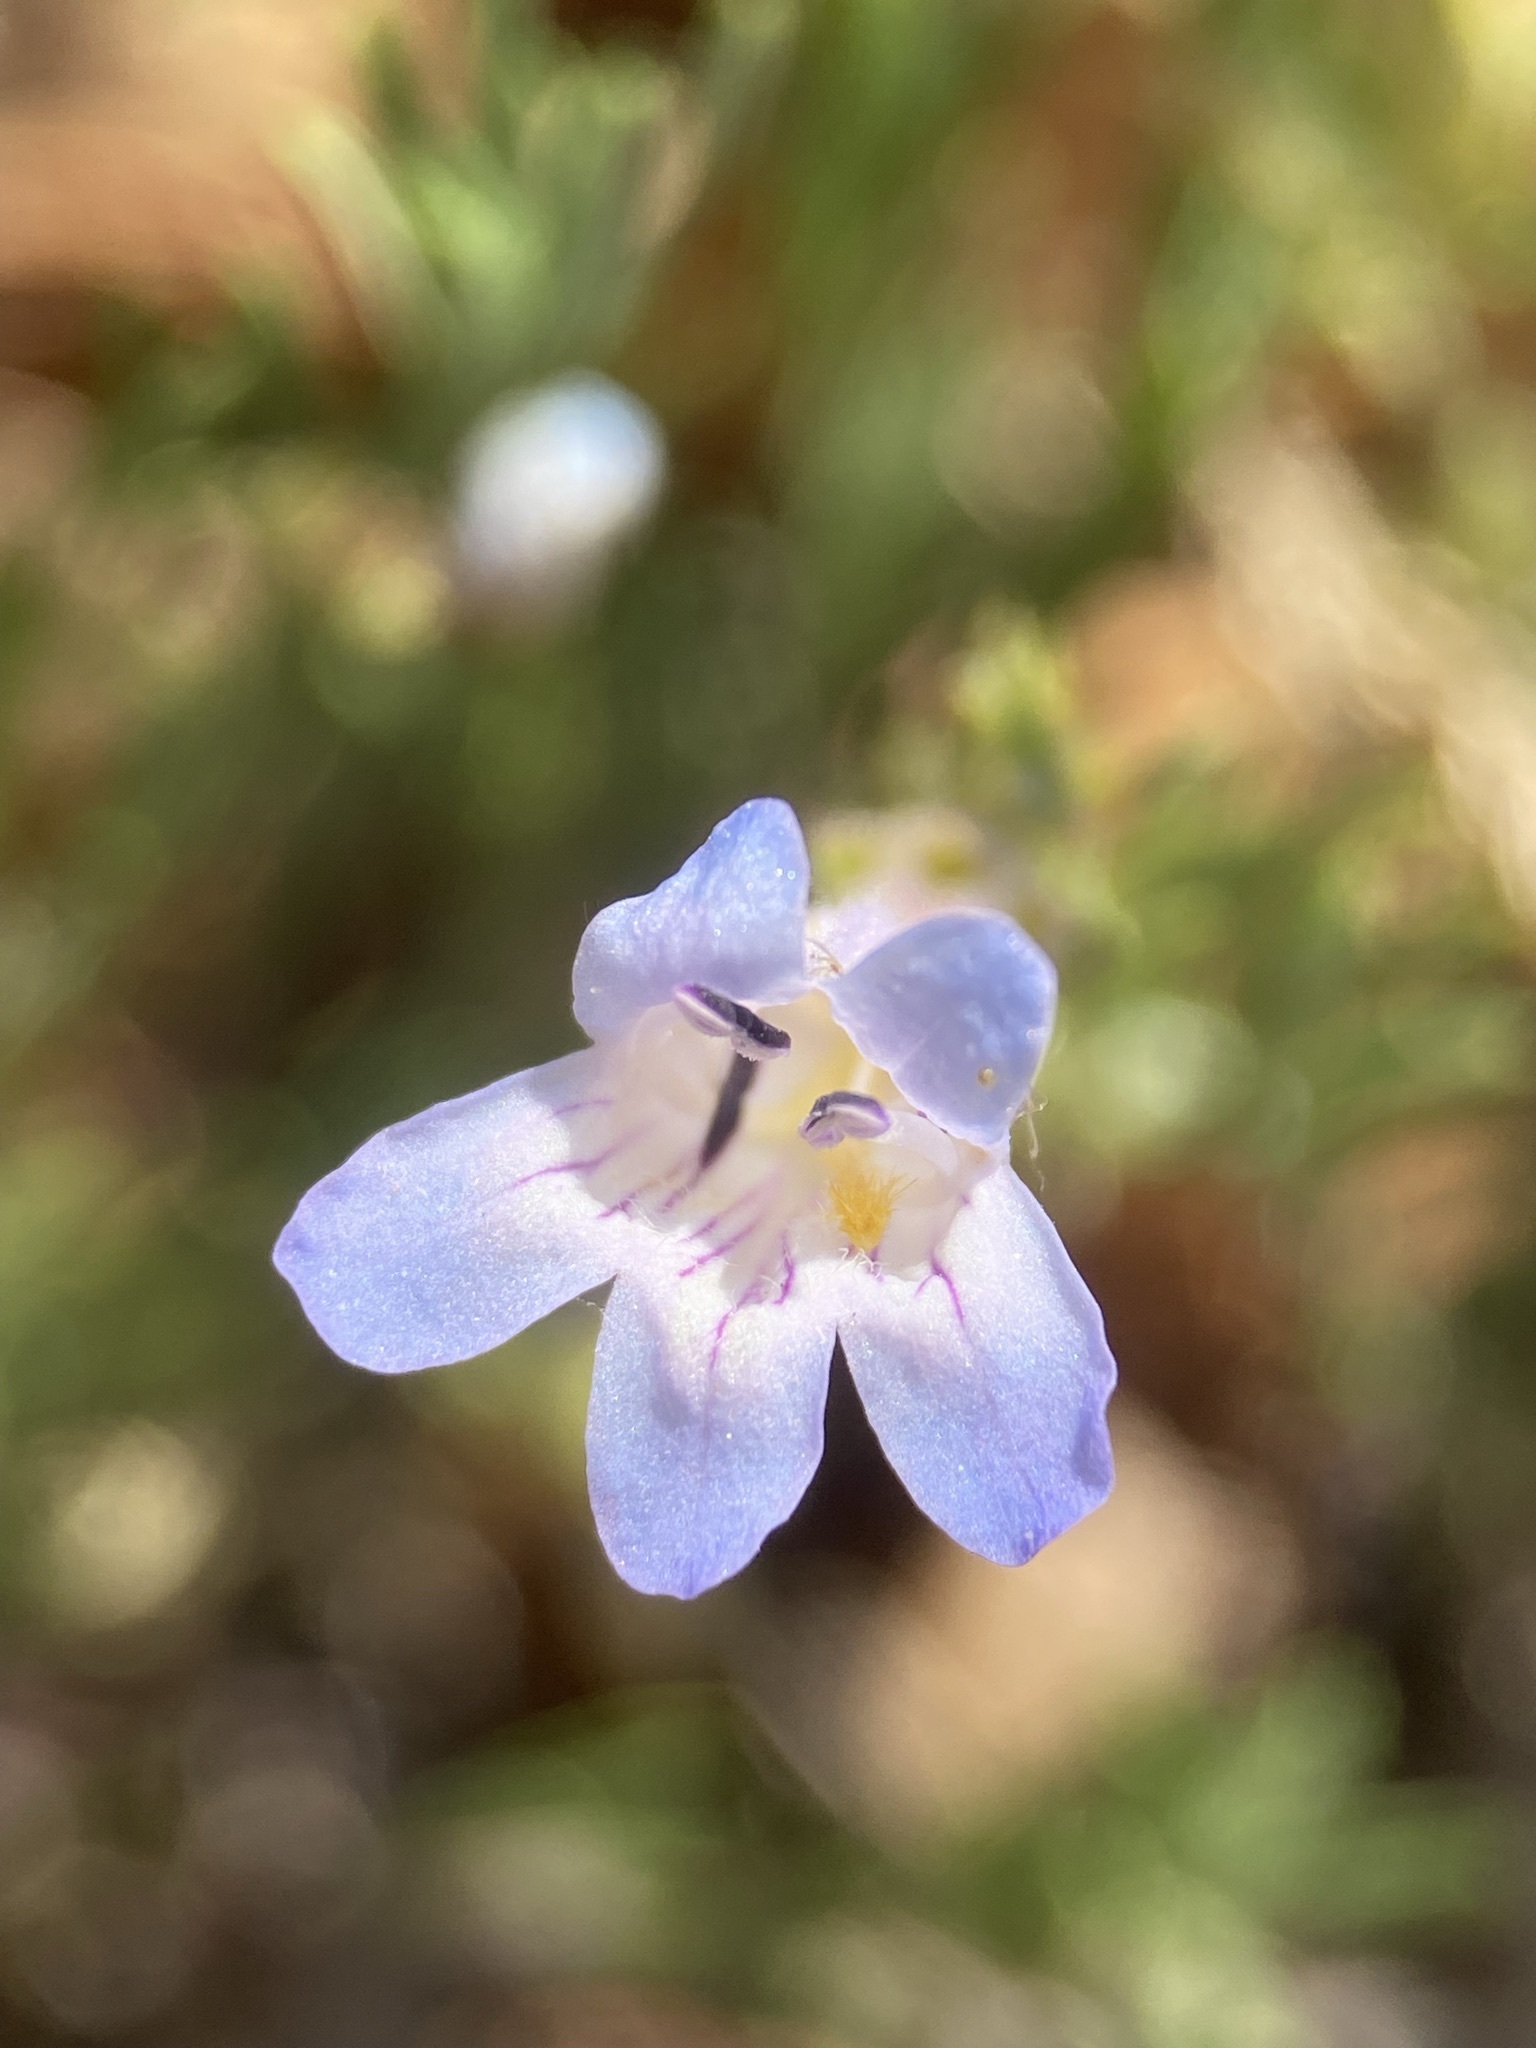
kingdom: Plantae
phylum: Tracheophyta
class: Magnoliopsida
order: Lamiales
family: Plantaginaceae
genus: Penstemon
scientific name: Penstemon linarioides
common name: Siler's penstemon
